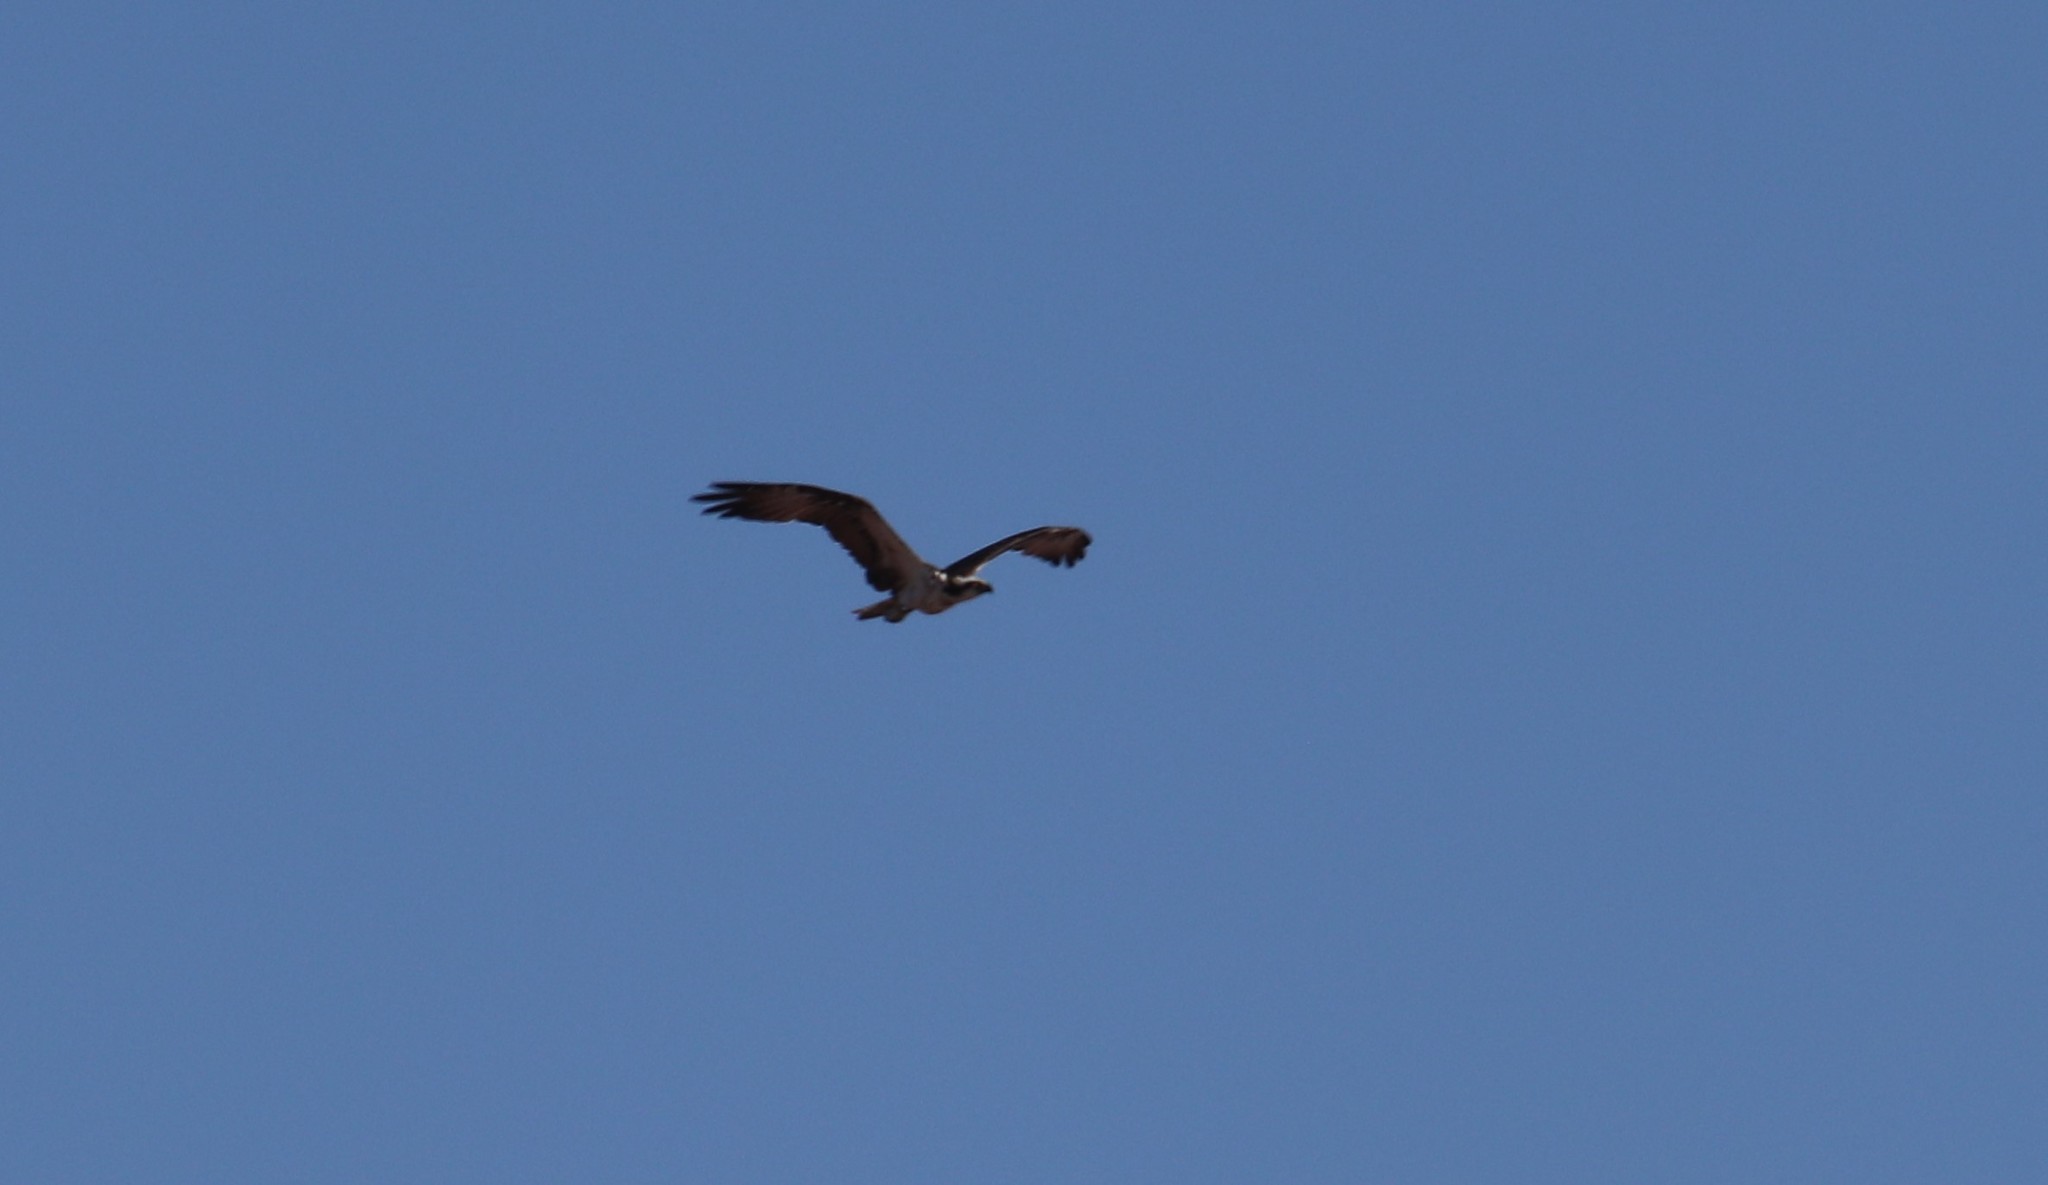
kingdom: Animalia
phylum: Chordata
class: Aves
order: Accipitriformes
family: Pandionidae
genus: Pandion
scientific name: Pandion haliaetus
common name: Osprey
